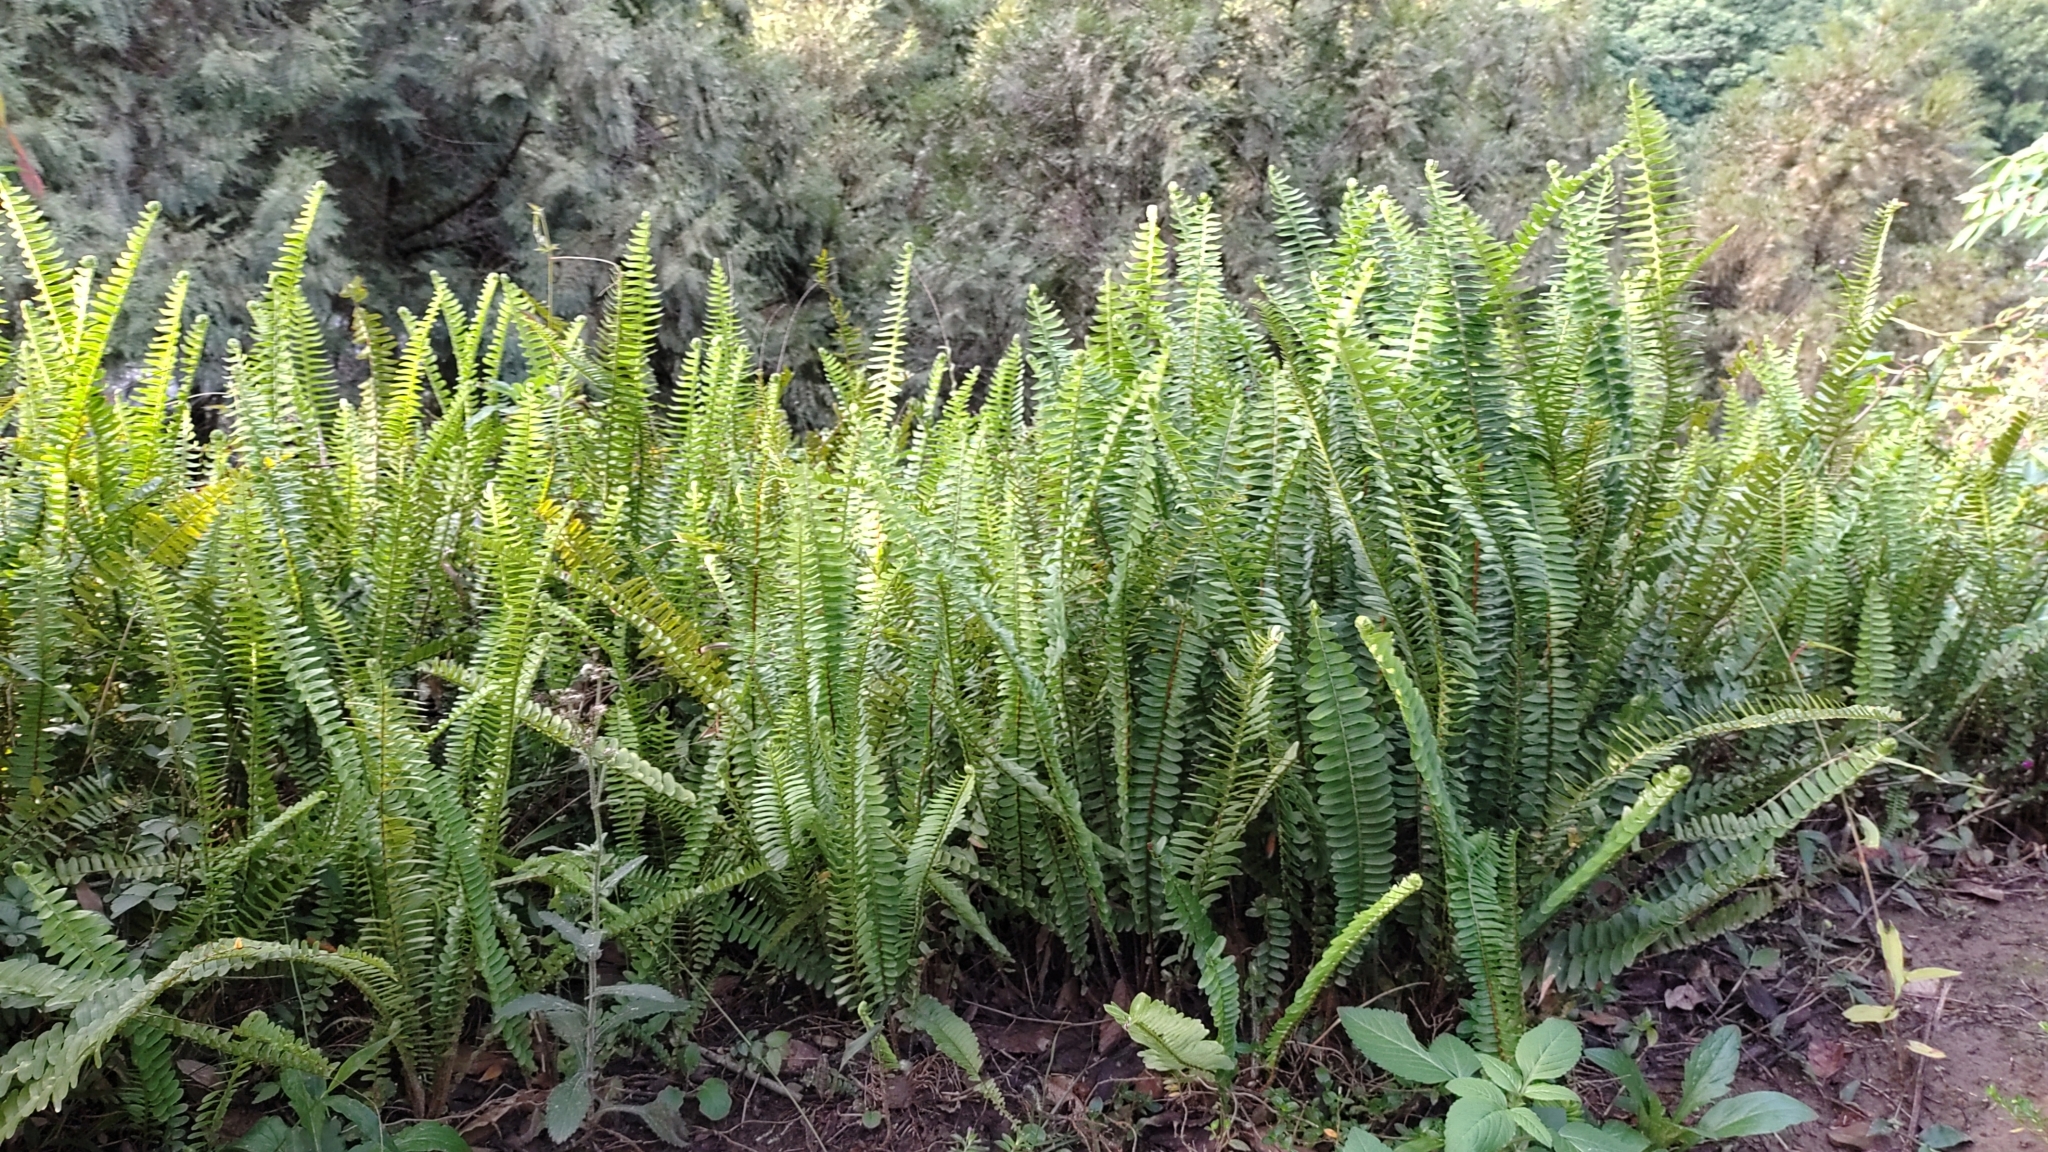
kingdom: Plantae
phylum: Tracheophyta
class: Polypodiopsida
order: Polypodiales
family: Nephrolepidaceae
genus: Nephrolepis
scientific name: Nephrolepis cordifolia
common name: Narrow swordfern
